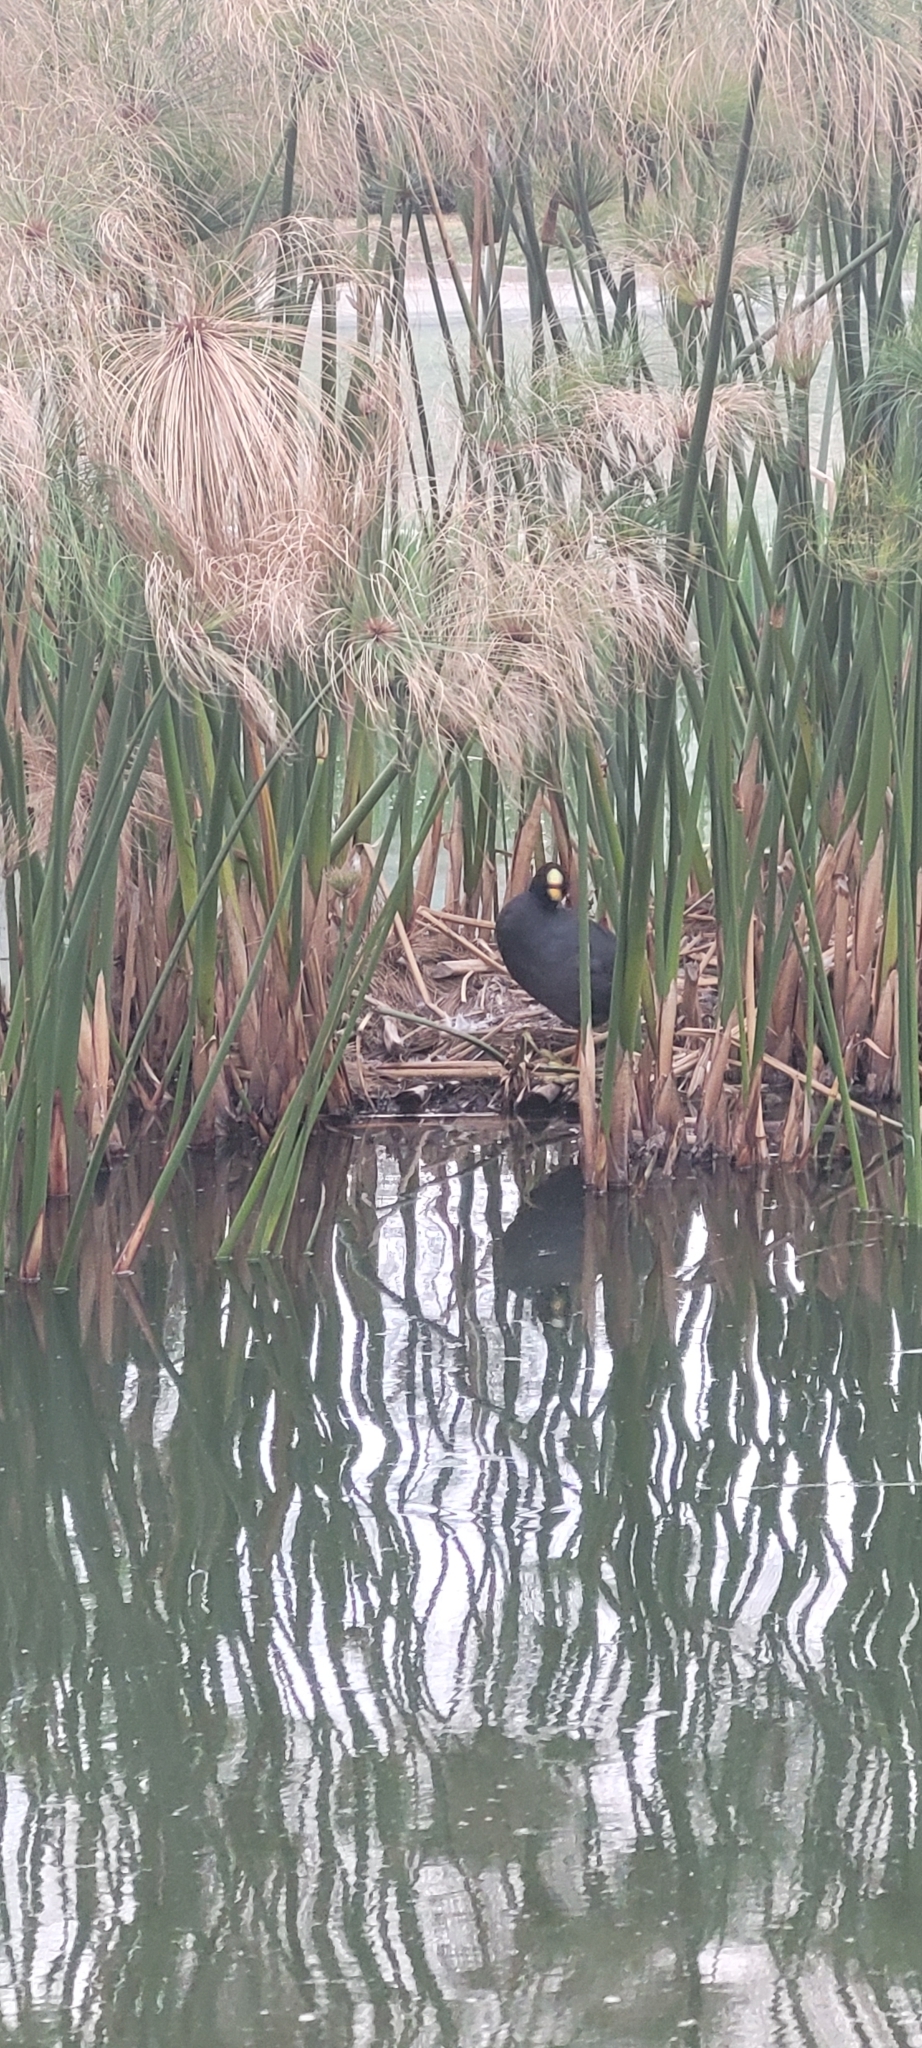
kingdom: Animalia
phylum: Chordata
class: Aves
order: Gruiformes
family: Rallidae
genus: Fulica
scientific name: Fulica armillata
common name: Red-gartered coot
